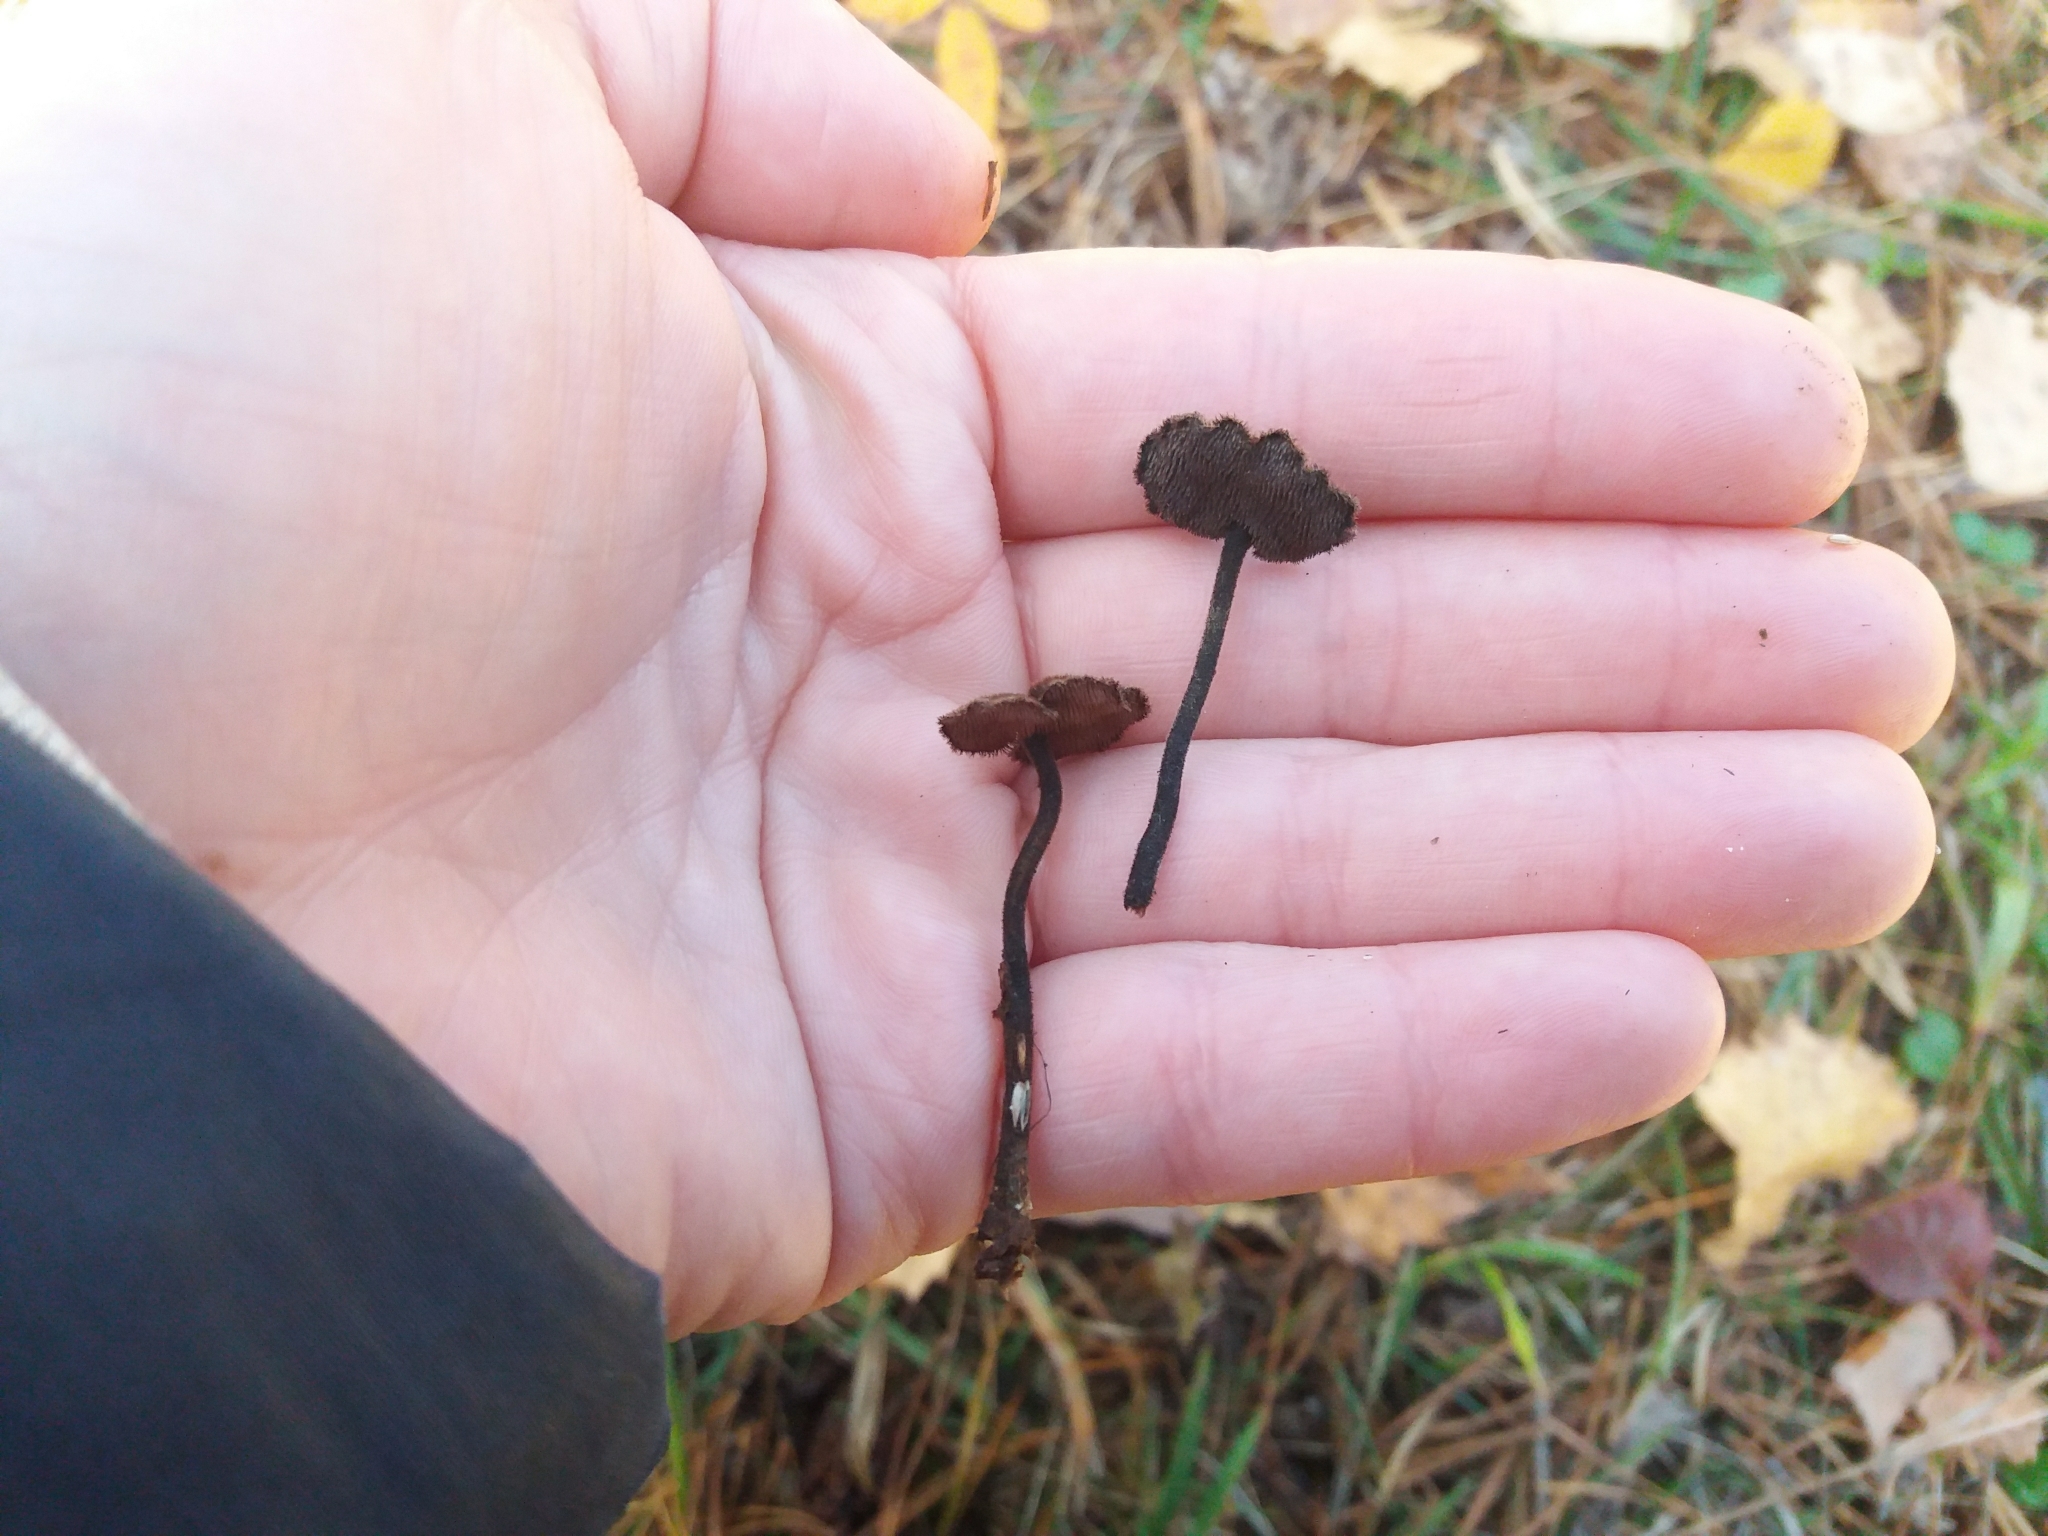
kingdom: Fungi
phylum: Basidiomycota
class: Agaricomycetes
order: Russulales
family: Auriscalpiaceae
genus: Auriscalpium
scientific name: Auriscalpium vulgare
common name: Earpick fungus
